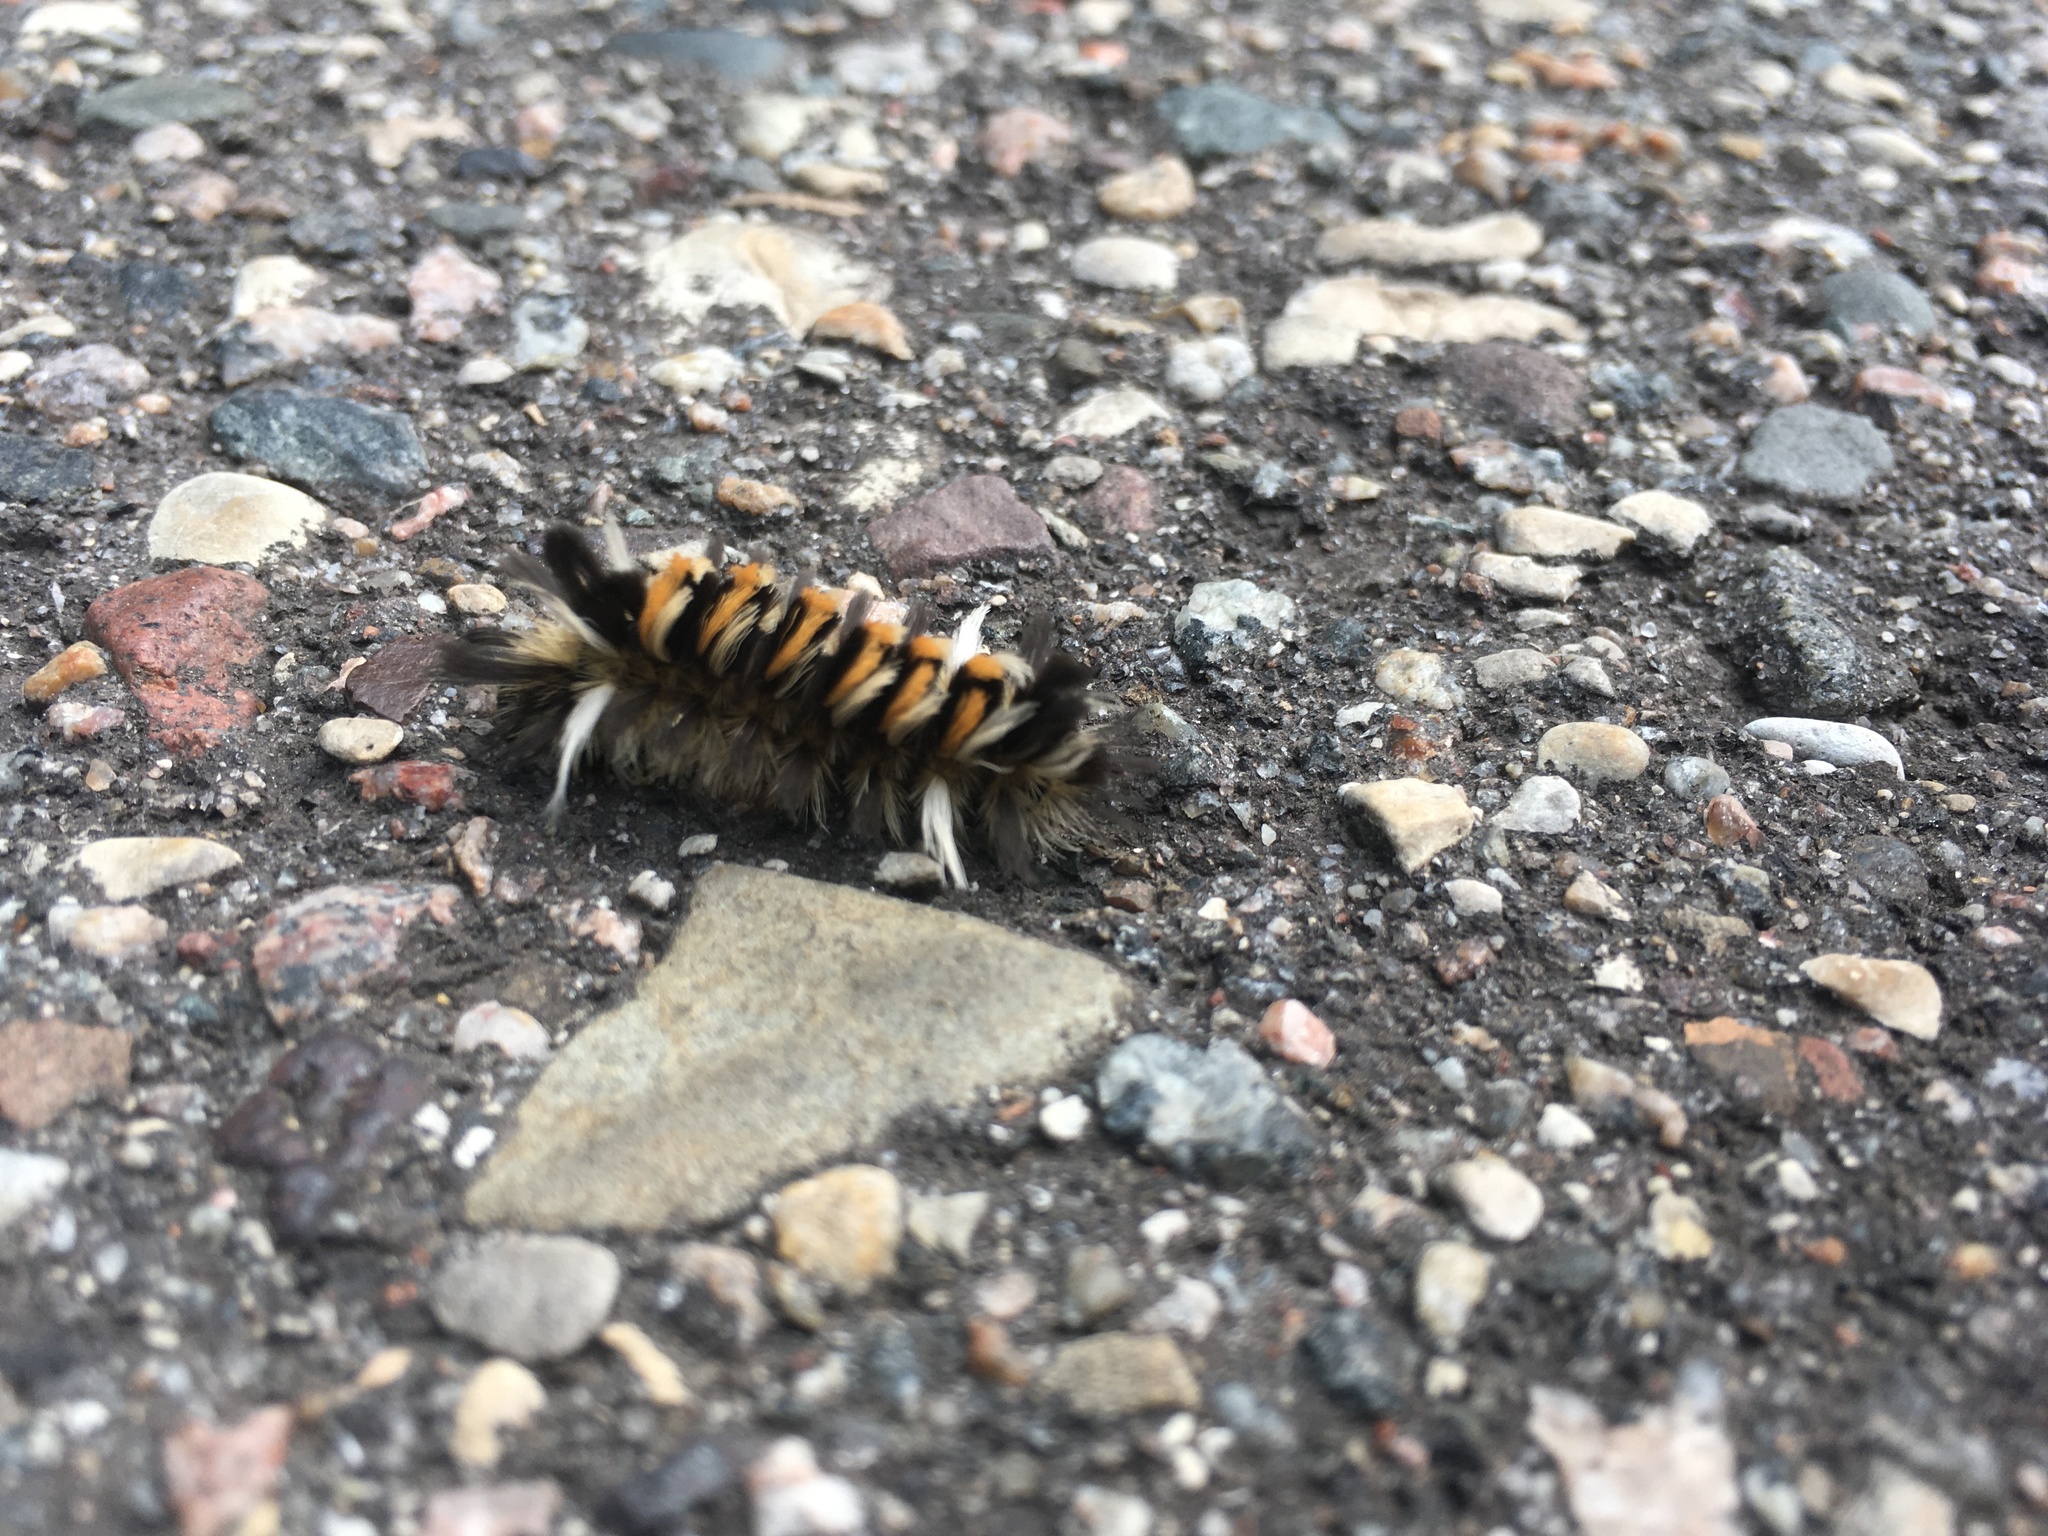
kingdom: Animalia
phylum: Arthropoda
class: Insecta
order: Lepidoptera
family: Erebidae
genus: Euchaetes
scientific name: Euchaetes egle
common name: Milkweed tussock moth
